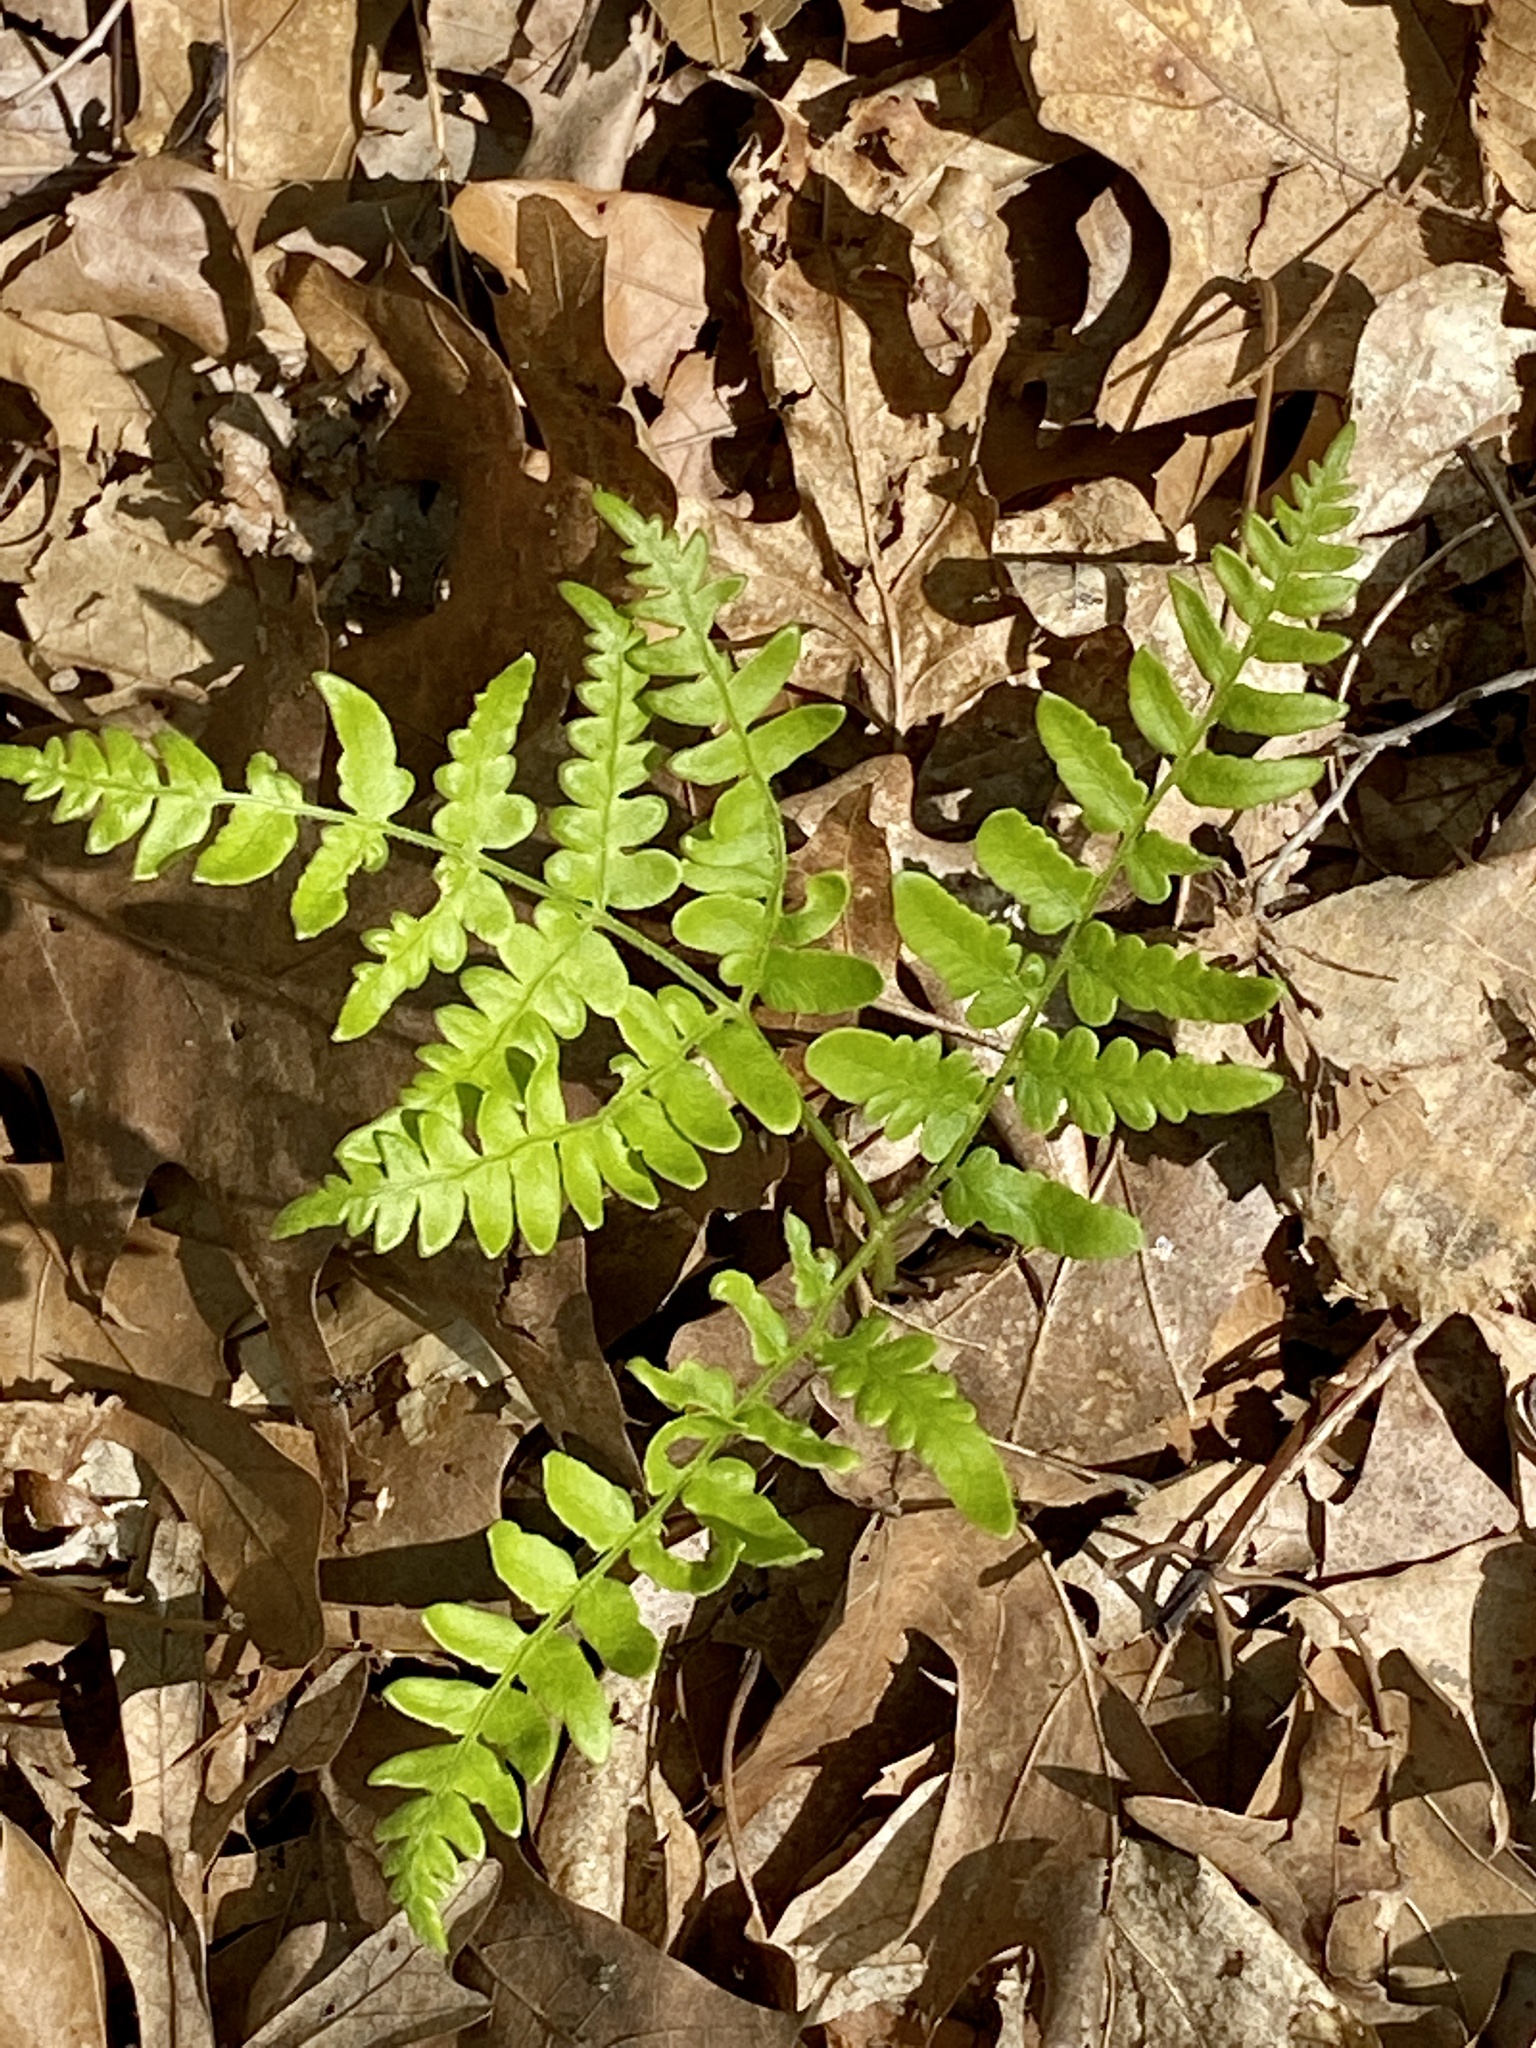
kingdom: Plantae
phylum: Tracheophyta
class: Polypodiopsida
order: Polypodiales
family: Dennstaedtiaceae
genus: Pteridium
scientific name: Pteridium aquilinum
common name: Bracken
